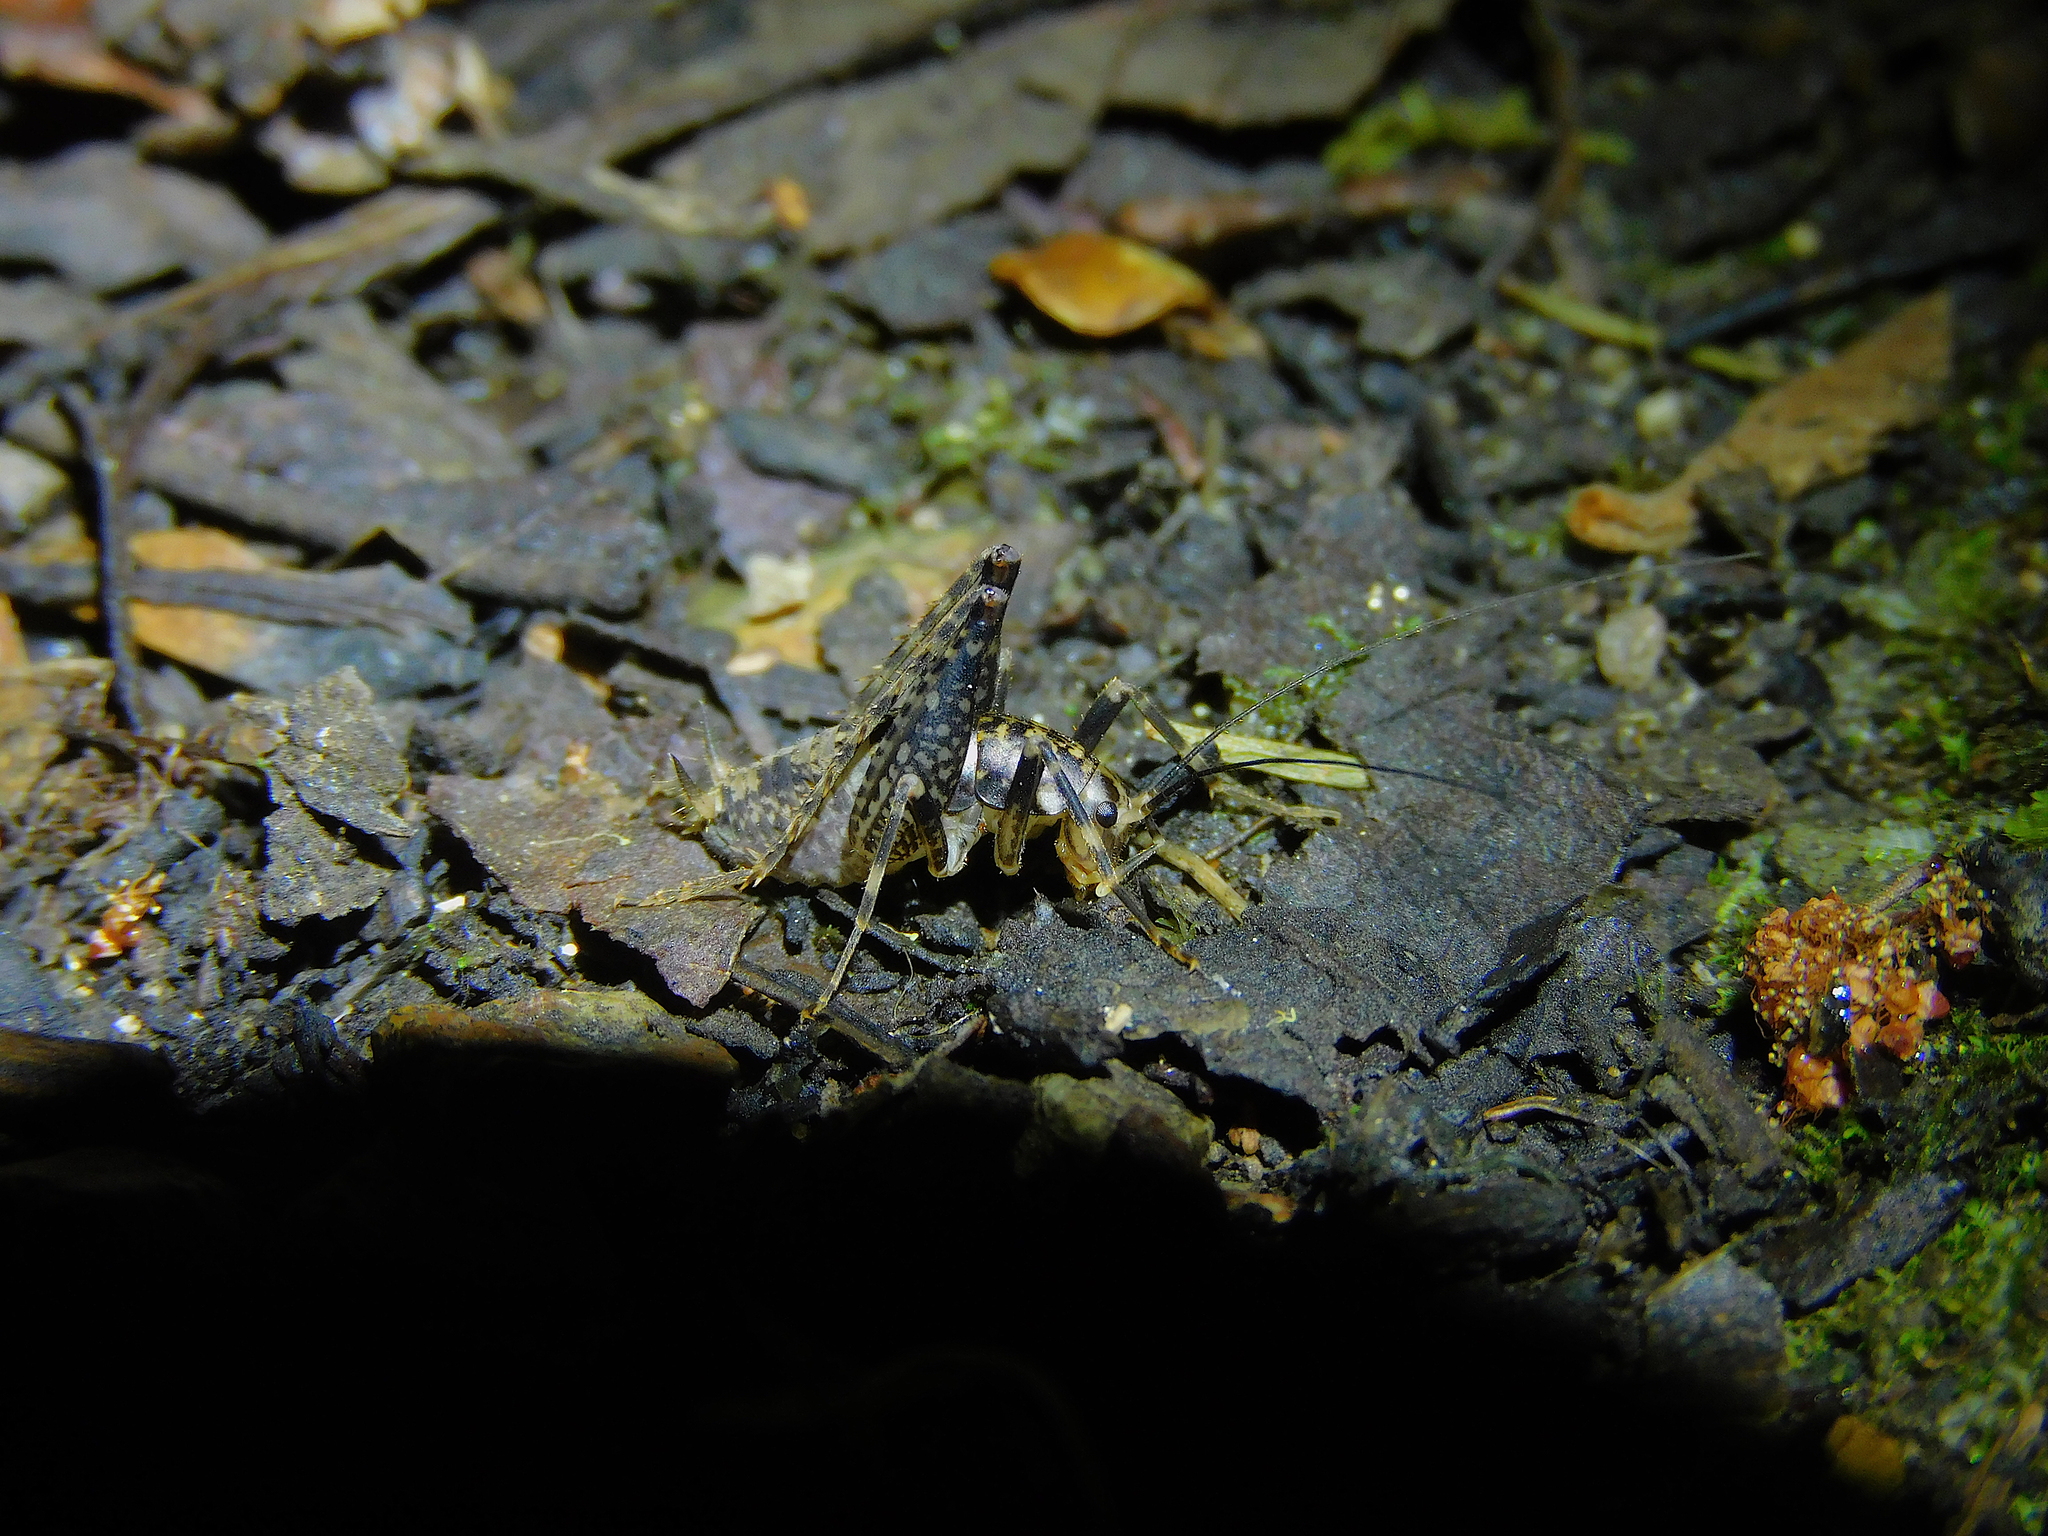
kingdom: Animalia
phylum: Arthropoda
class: Insecta
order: Orthoptera
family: Rhaphidophoridae
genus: Parvotettix
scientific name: Parvotettix domesticus
